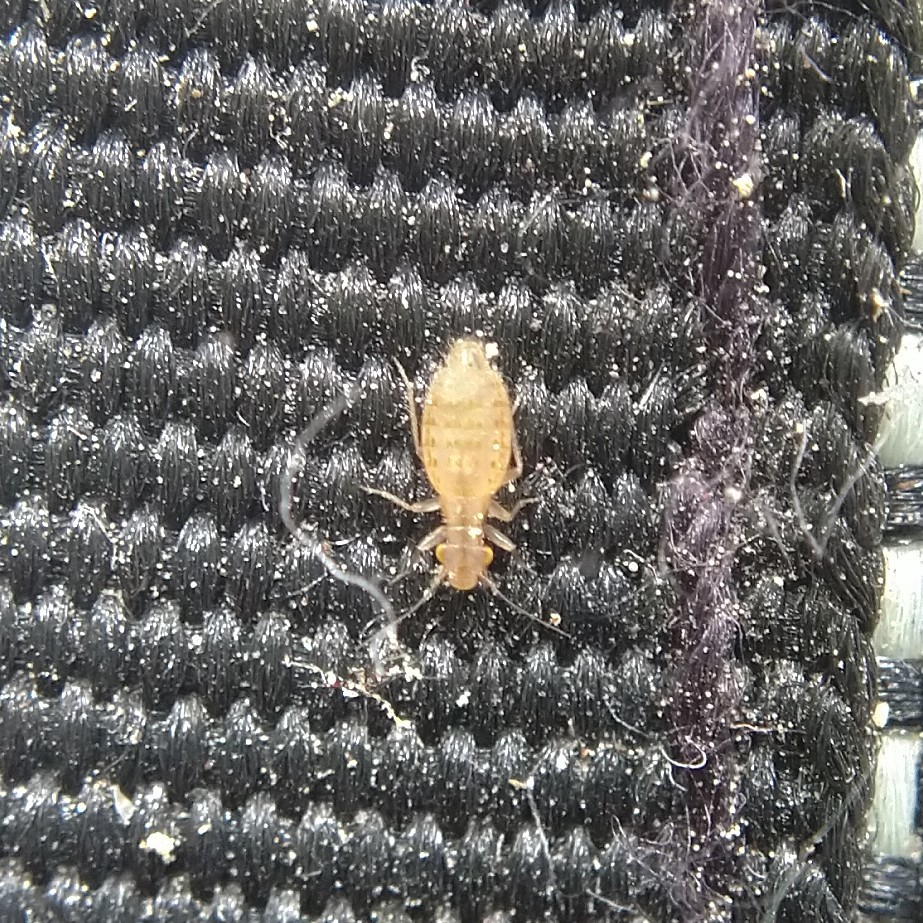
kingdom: Animalia
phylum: Arthropoda
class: Insecta
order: Psocodea
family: Trogiidae
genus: Trogium
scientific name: Trogium pulsatorium
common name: Granary book louse
